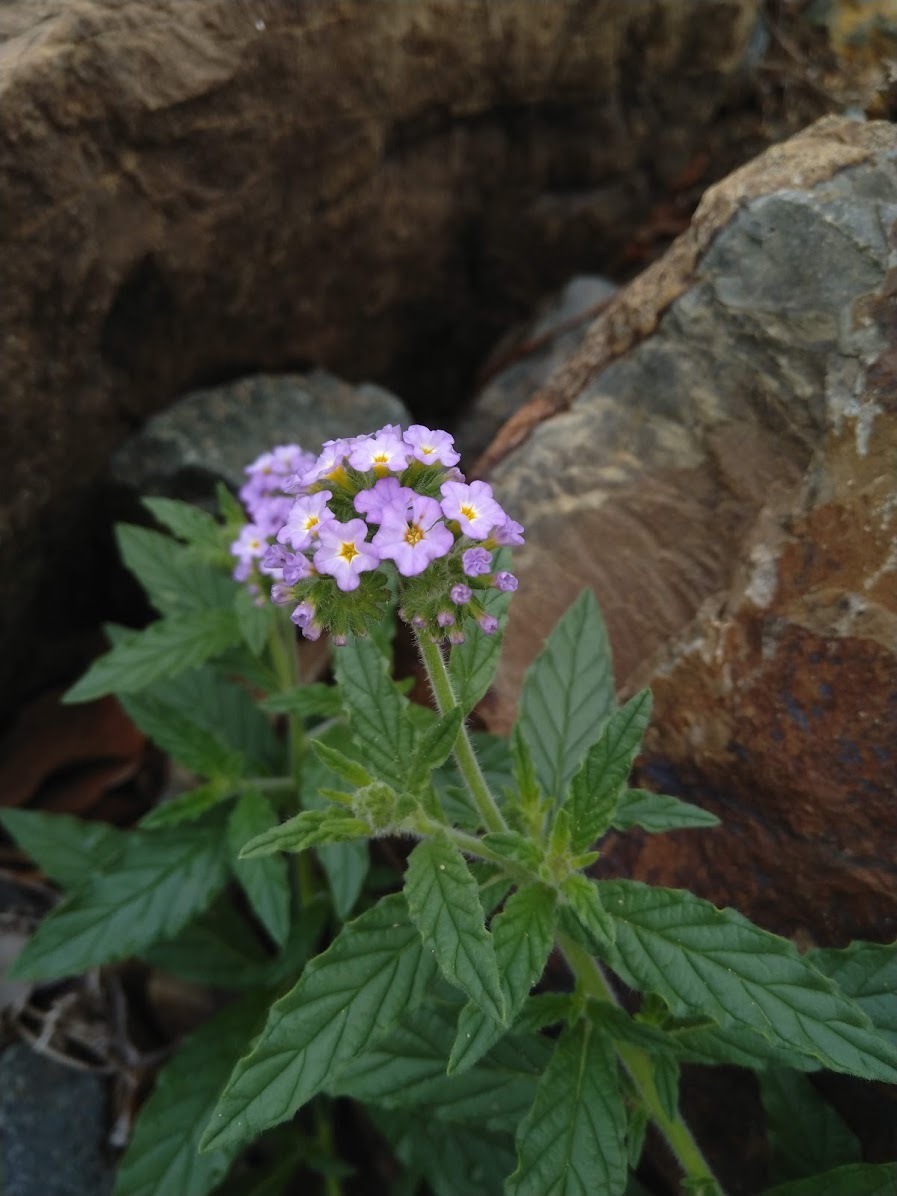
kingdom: Plantae
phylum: Tracheophyta
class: Magnoliopsida
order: Boraginales
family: Heliotropiaceae
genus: Heliotropium
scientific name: Heliotropium amplexicaule
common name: Clasping heliotrope
